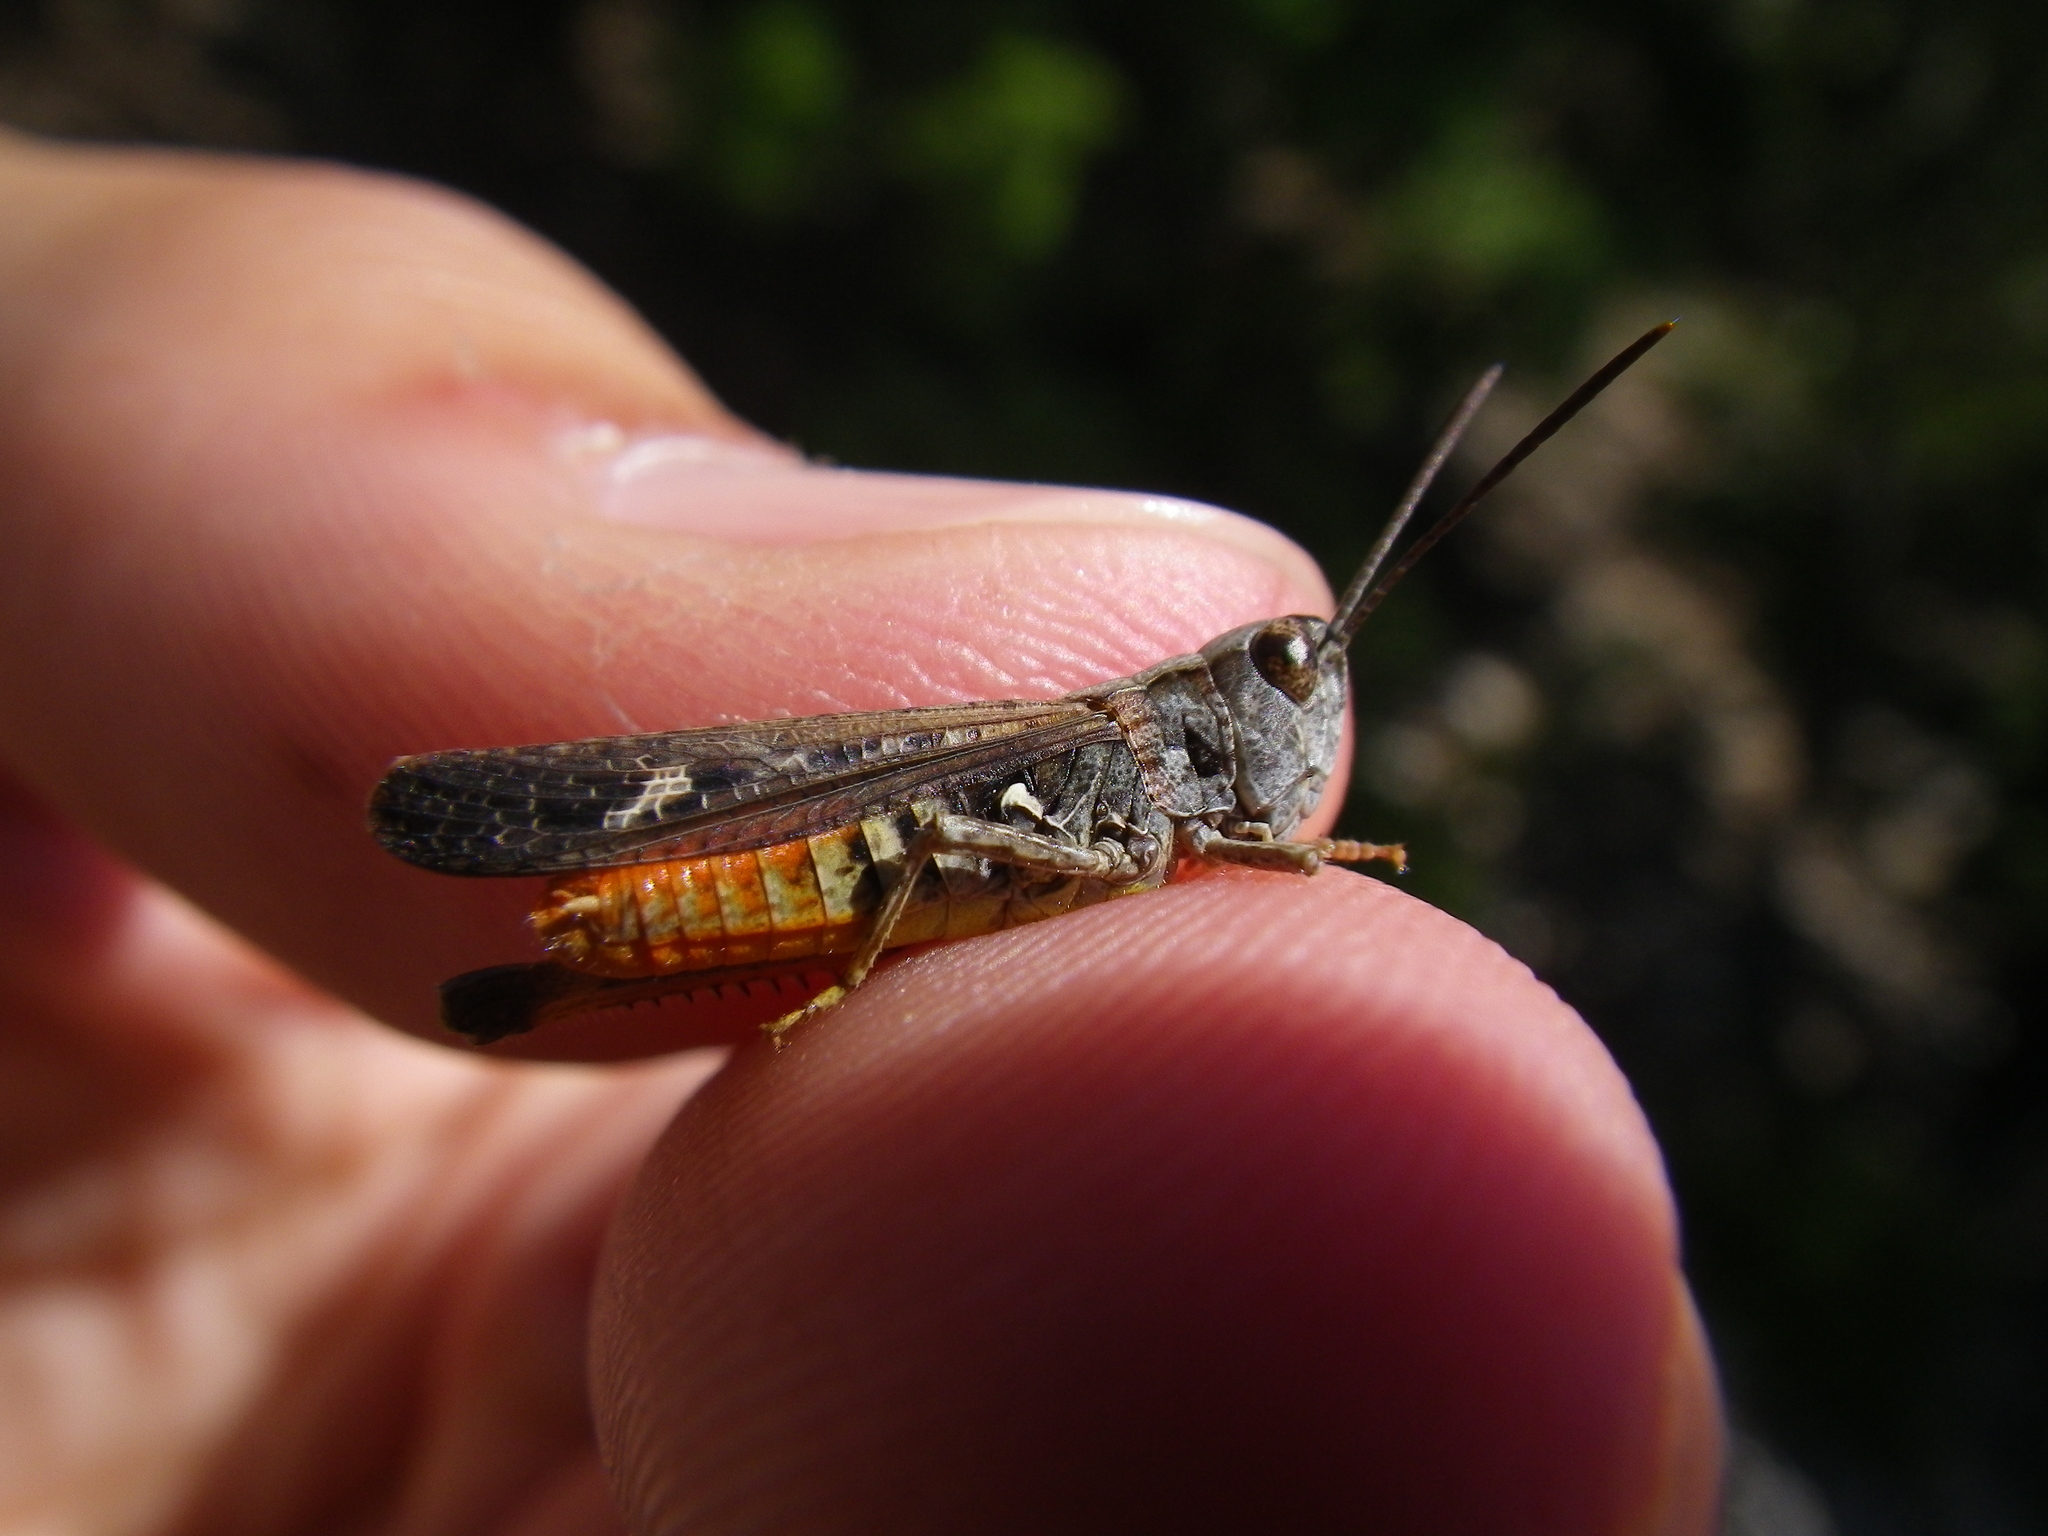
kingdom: Animalia
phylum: Arthropoda
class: Insecta
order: Orthoptera
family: Acrididae
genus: Omocestus
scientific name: Omocestus raymondi
